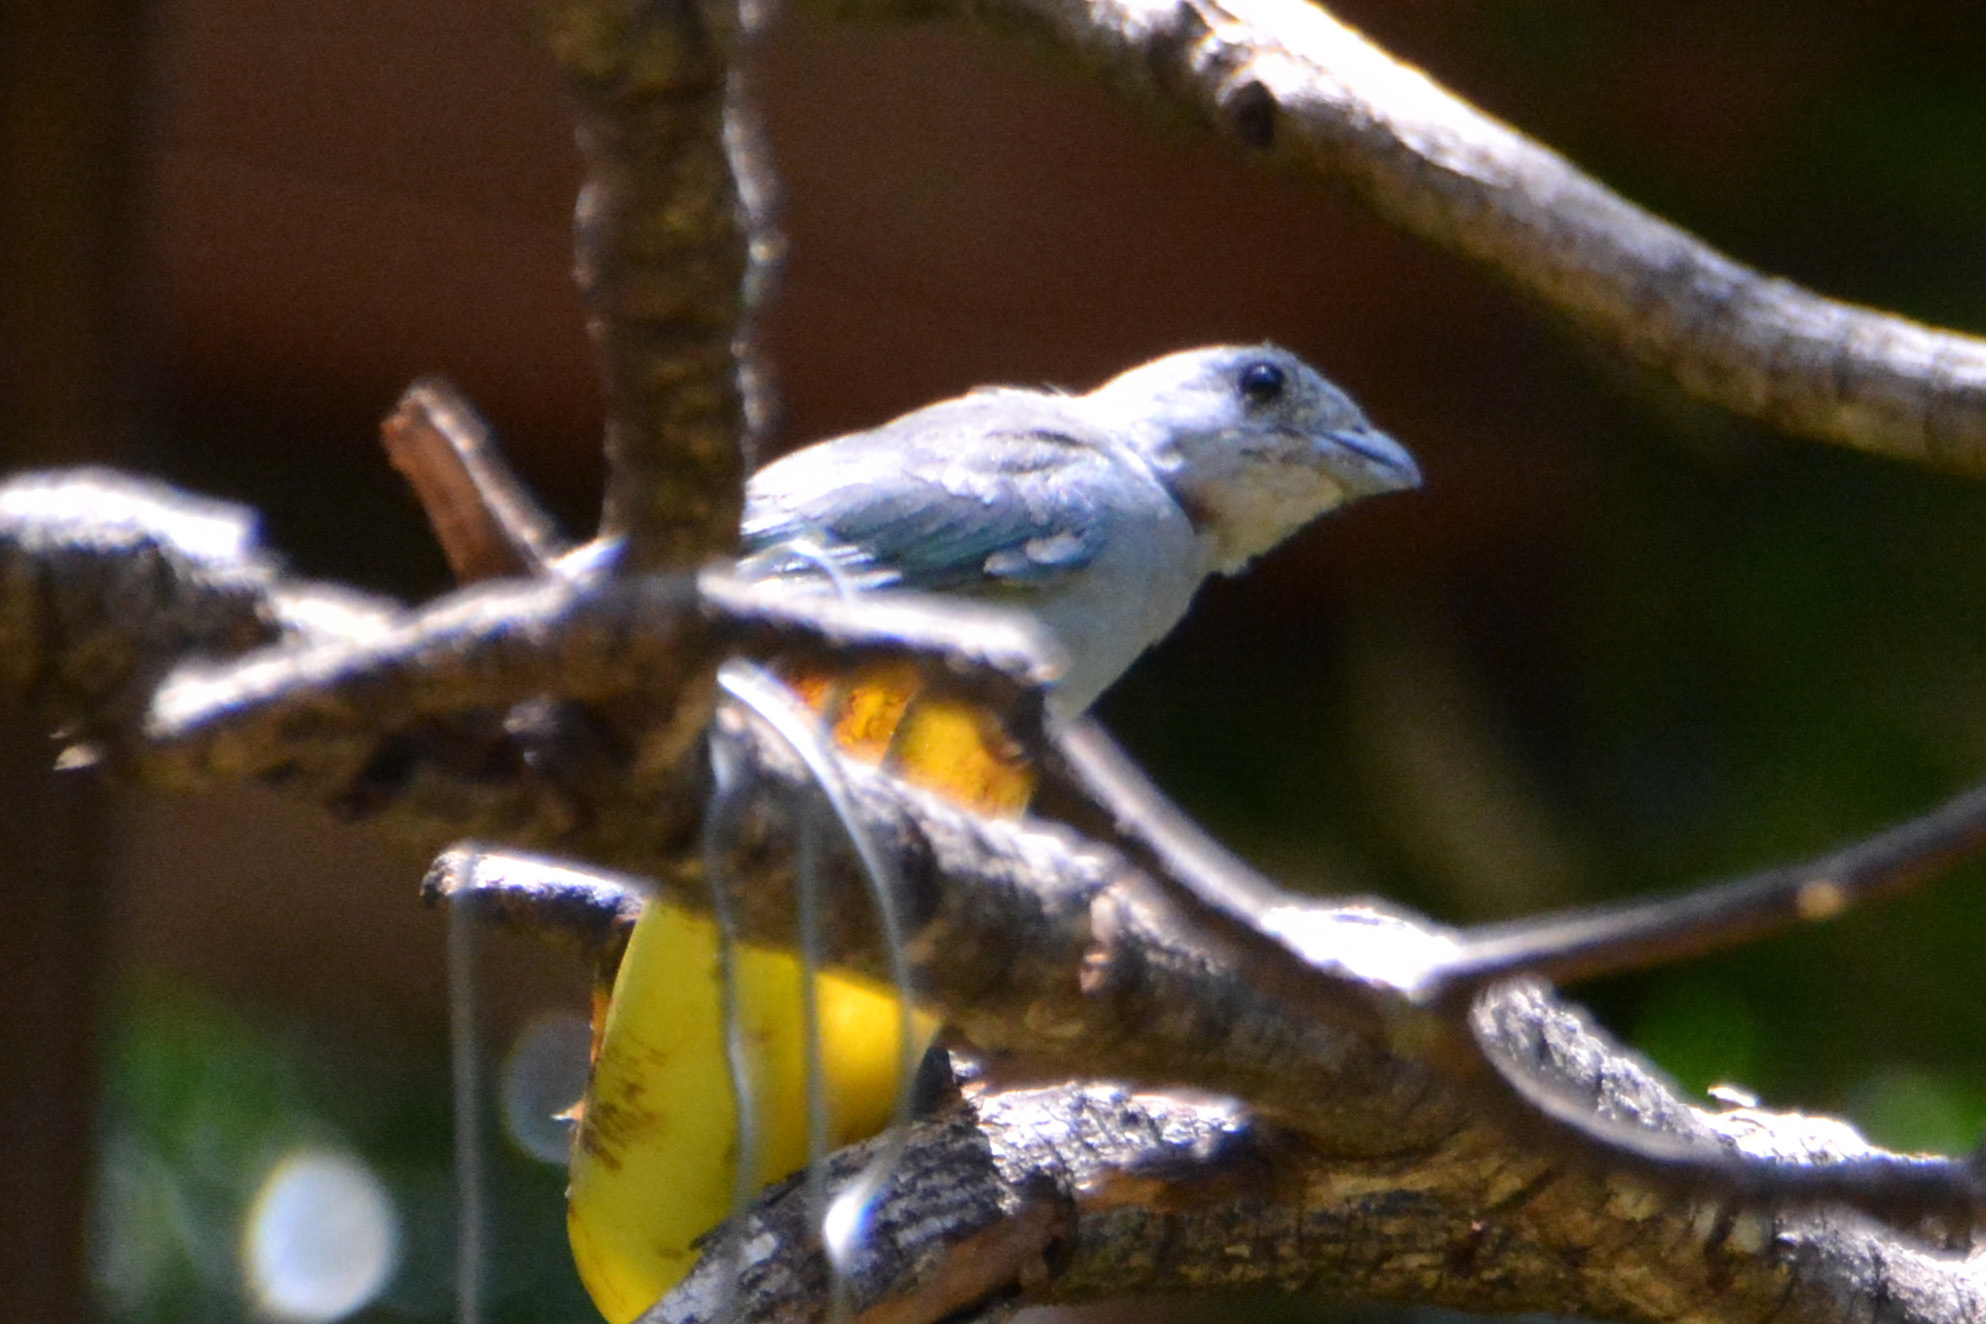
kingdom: Animalia
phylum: Chordata
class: Aves
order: Passeriformes
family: Thraupidae
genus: Thraupis
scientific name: Thraupis sayaca
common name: Sayaca tanager
